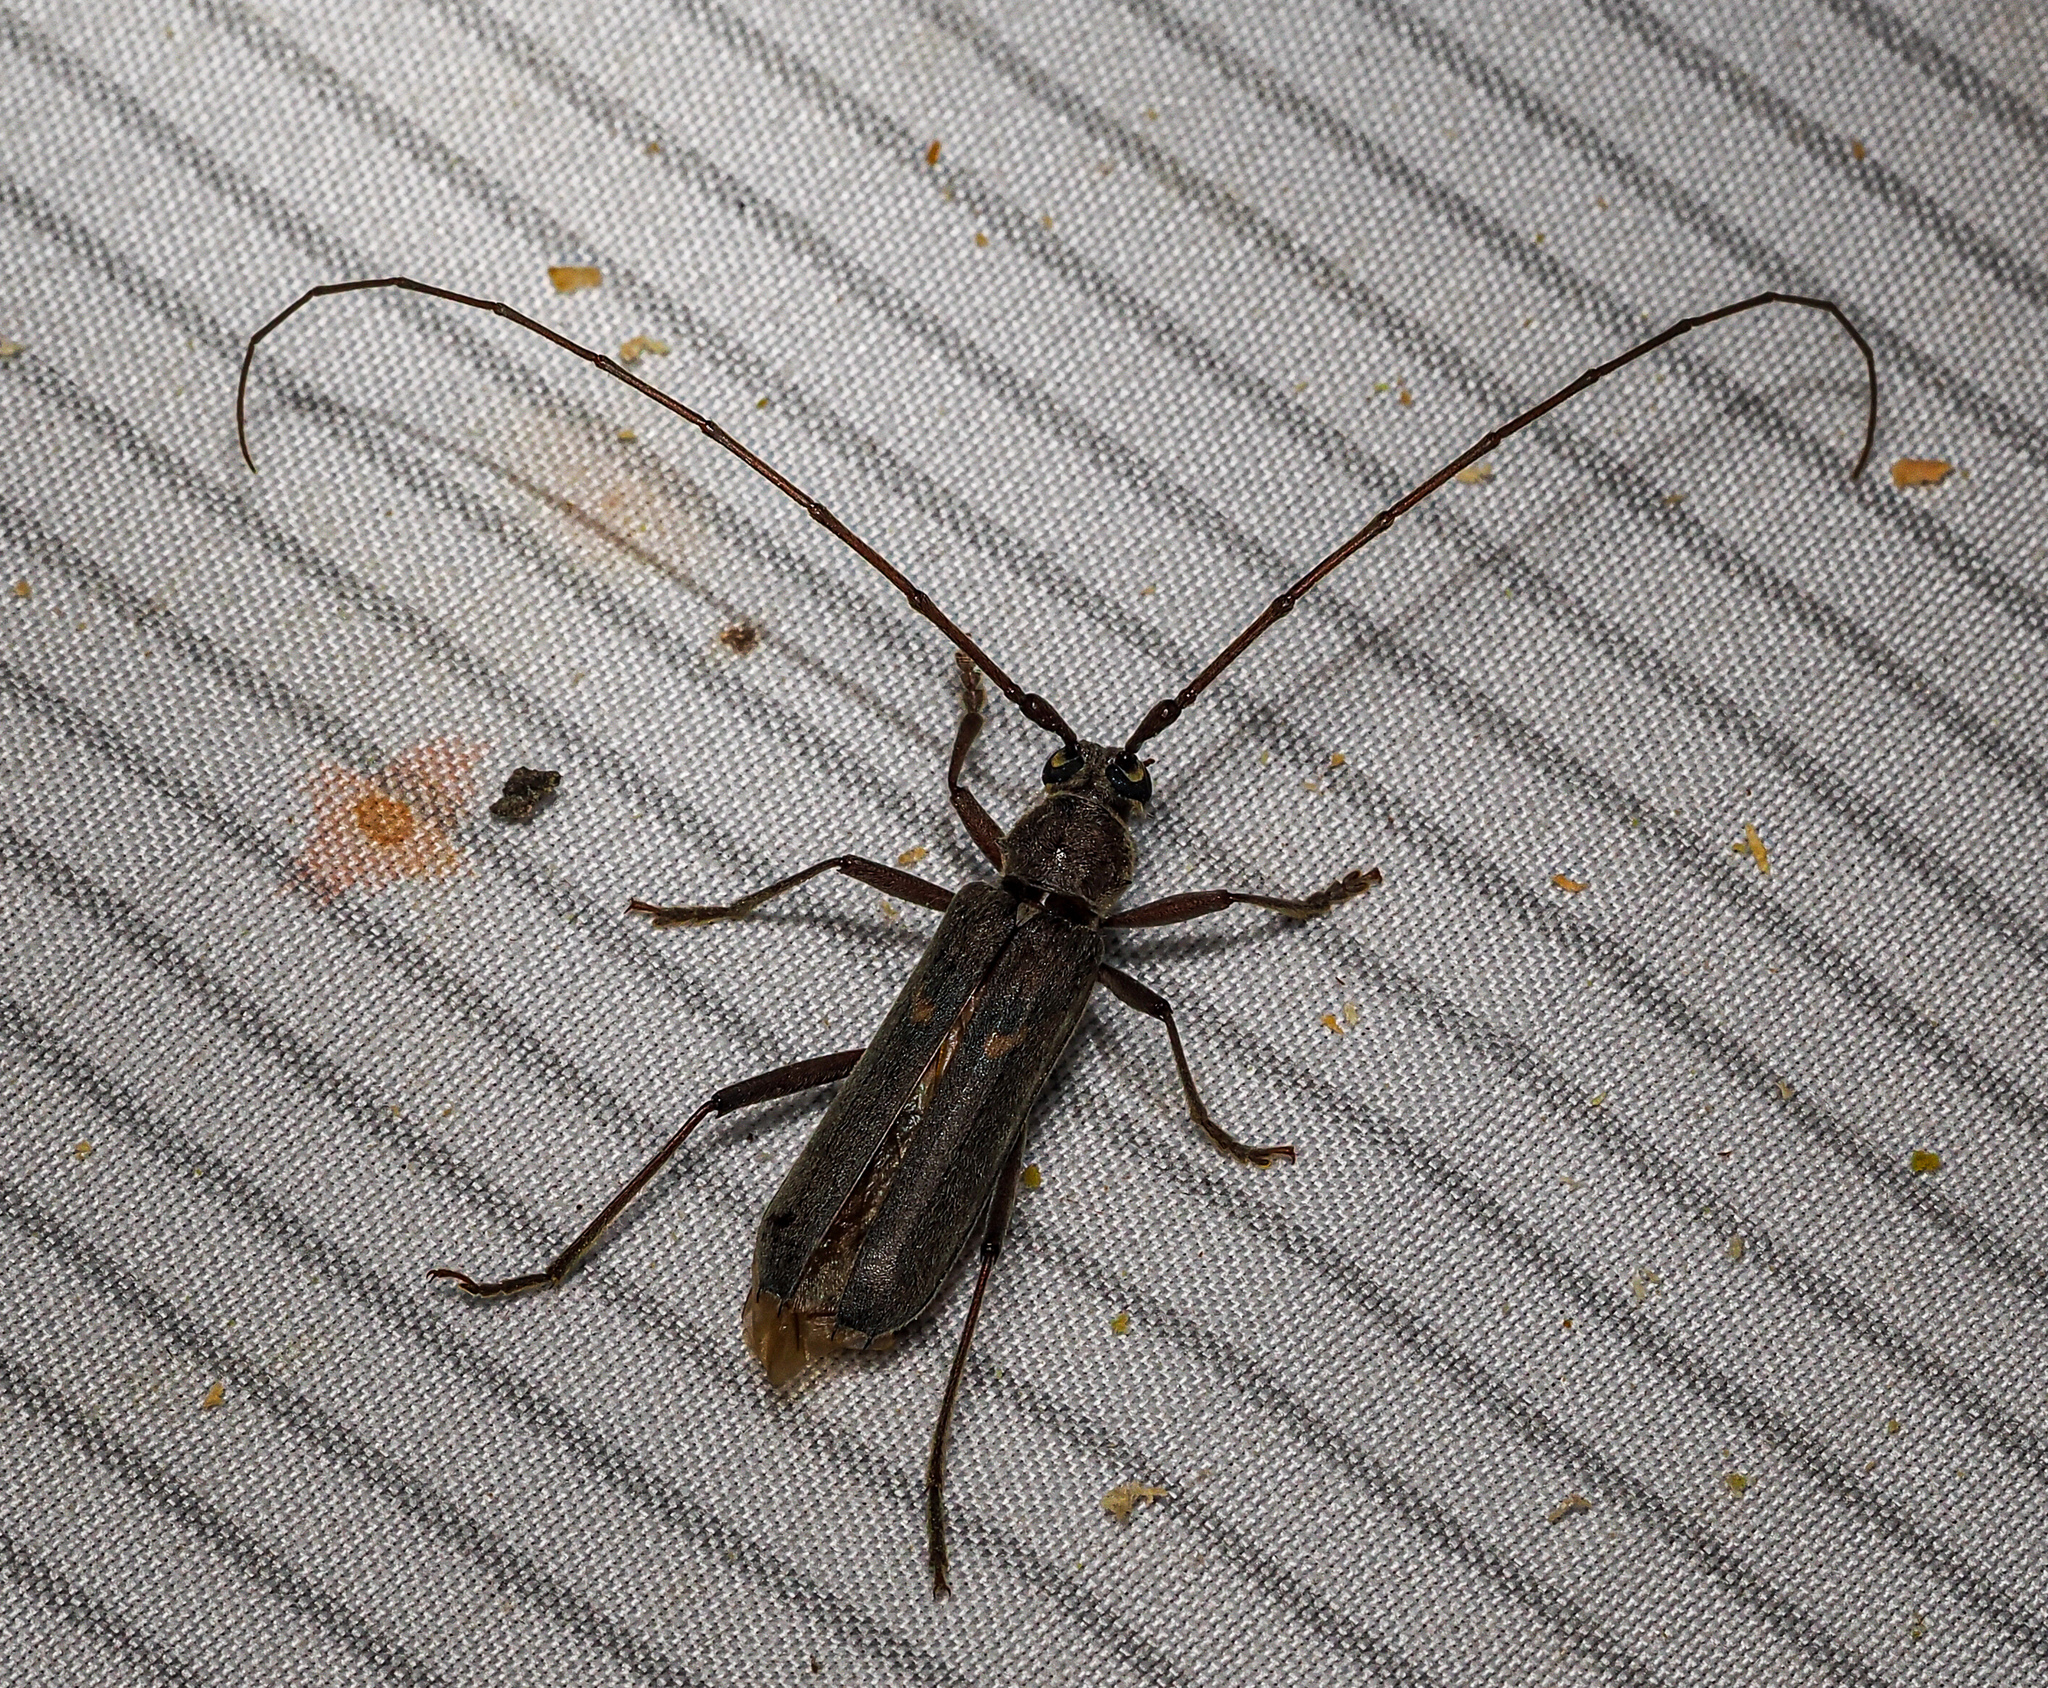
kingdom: Animalia
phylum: Arthropoda
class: Insecta
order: Coleoptera
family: Cerambycidae
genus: Knulliana
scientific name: Knulliana cincta
